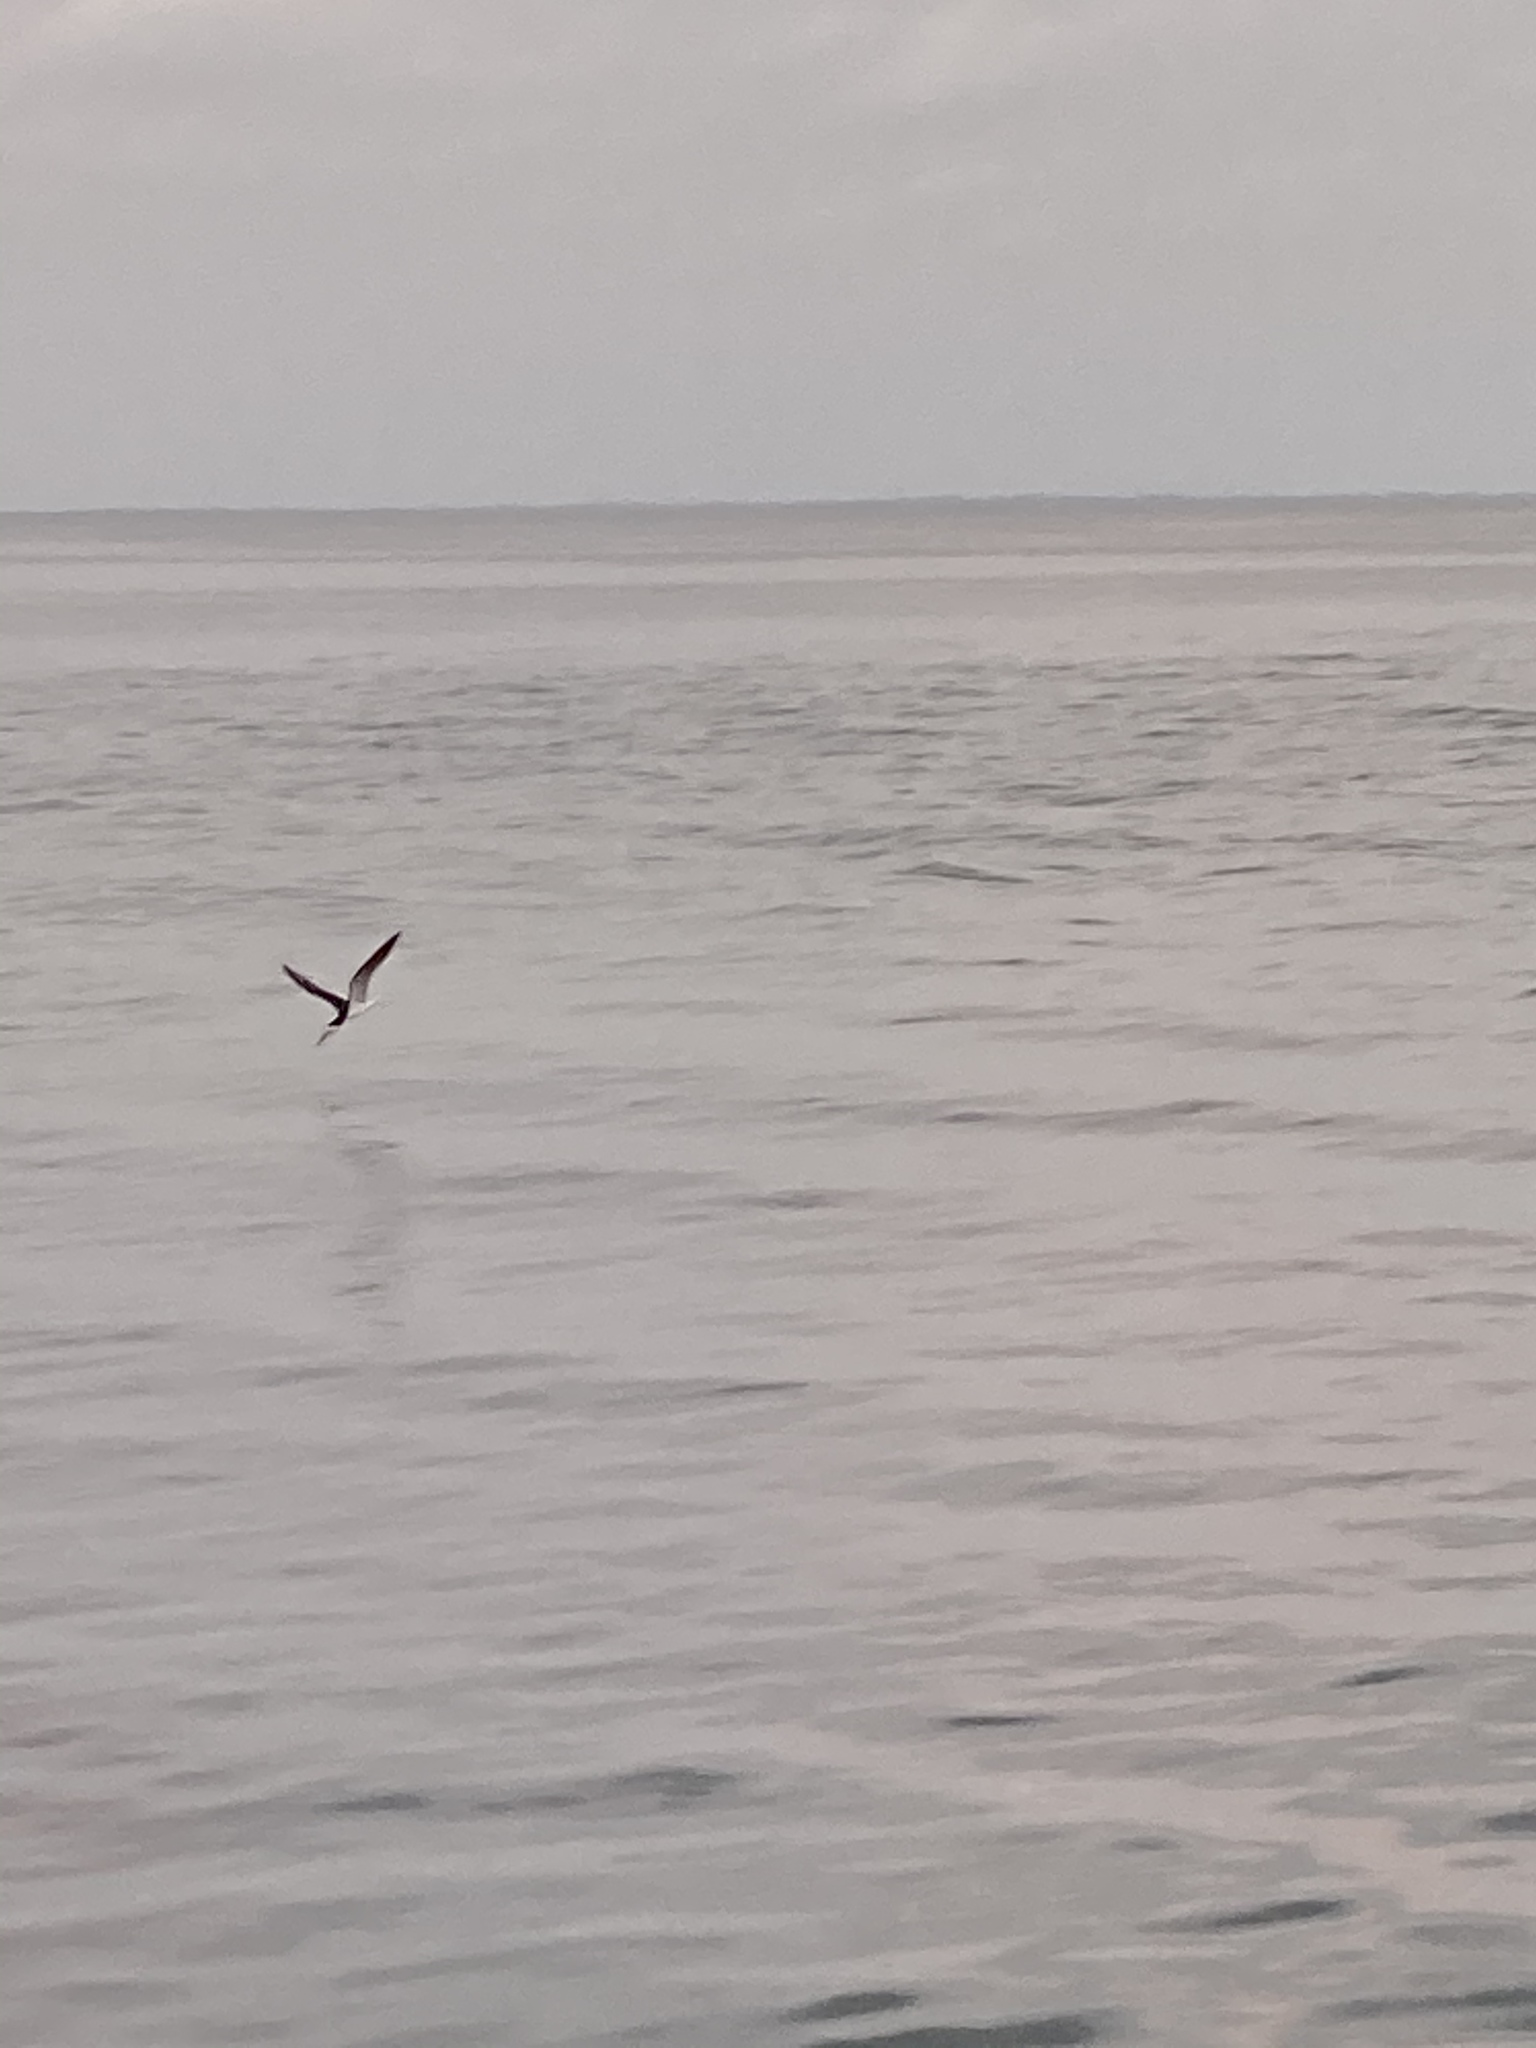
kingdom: Animalia
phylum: Chordata
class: Aves
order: Charadriiformes
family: Laridae
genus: Rynchops
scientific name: Rynchops niger
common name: Black skimmer
